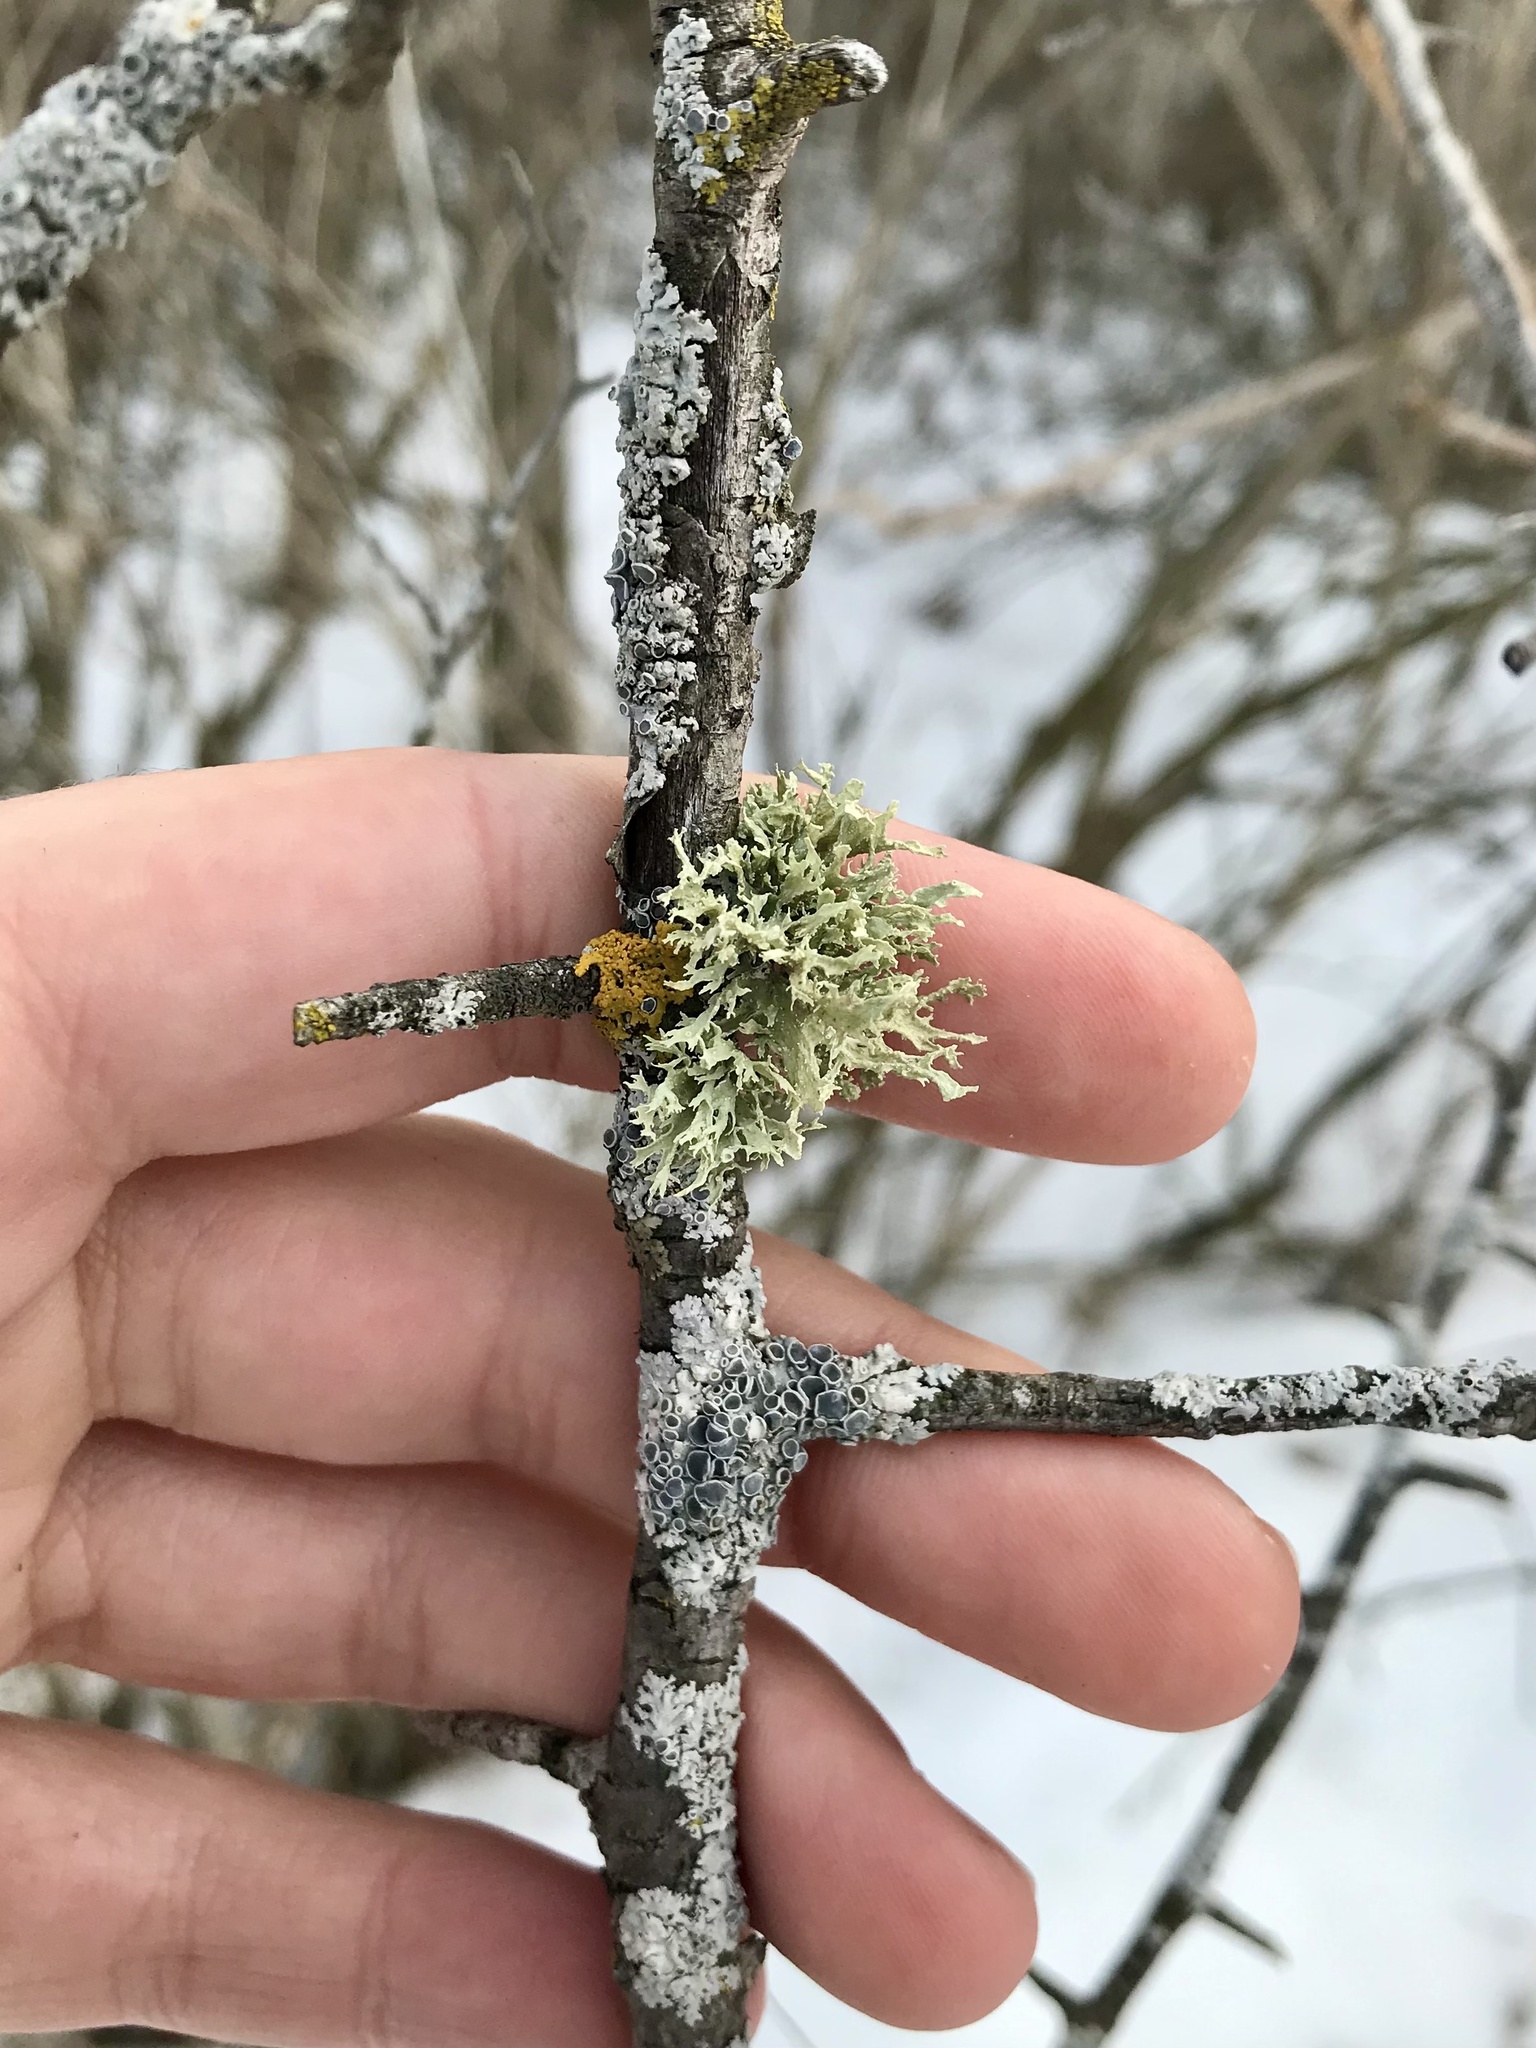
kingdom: Fungi
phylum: Ascomycota
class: Lecanoromycetes
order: Lecanorales
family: Ramalinaceae
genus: Ramalina
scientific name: Ramalina americana
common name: Sinewed bush lichen
